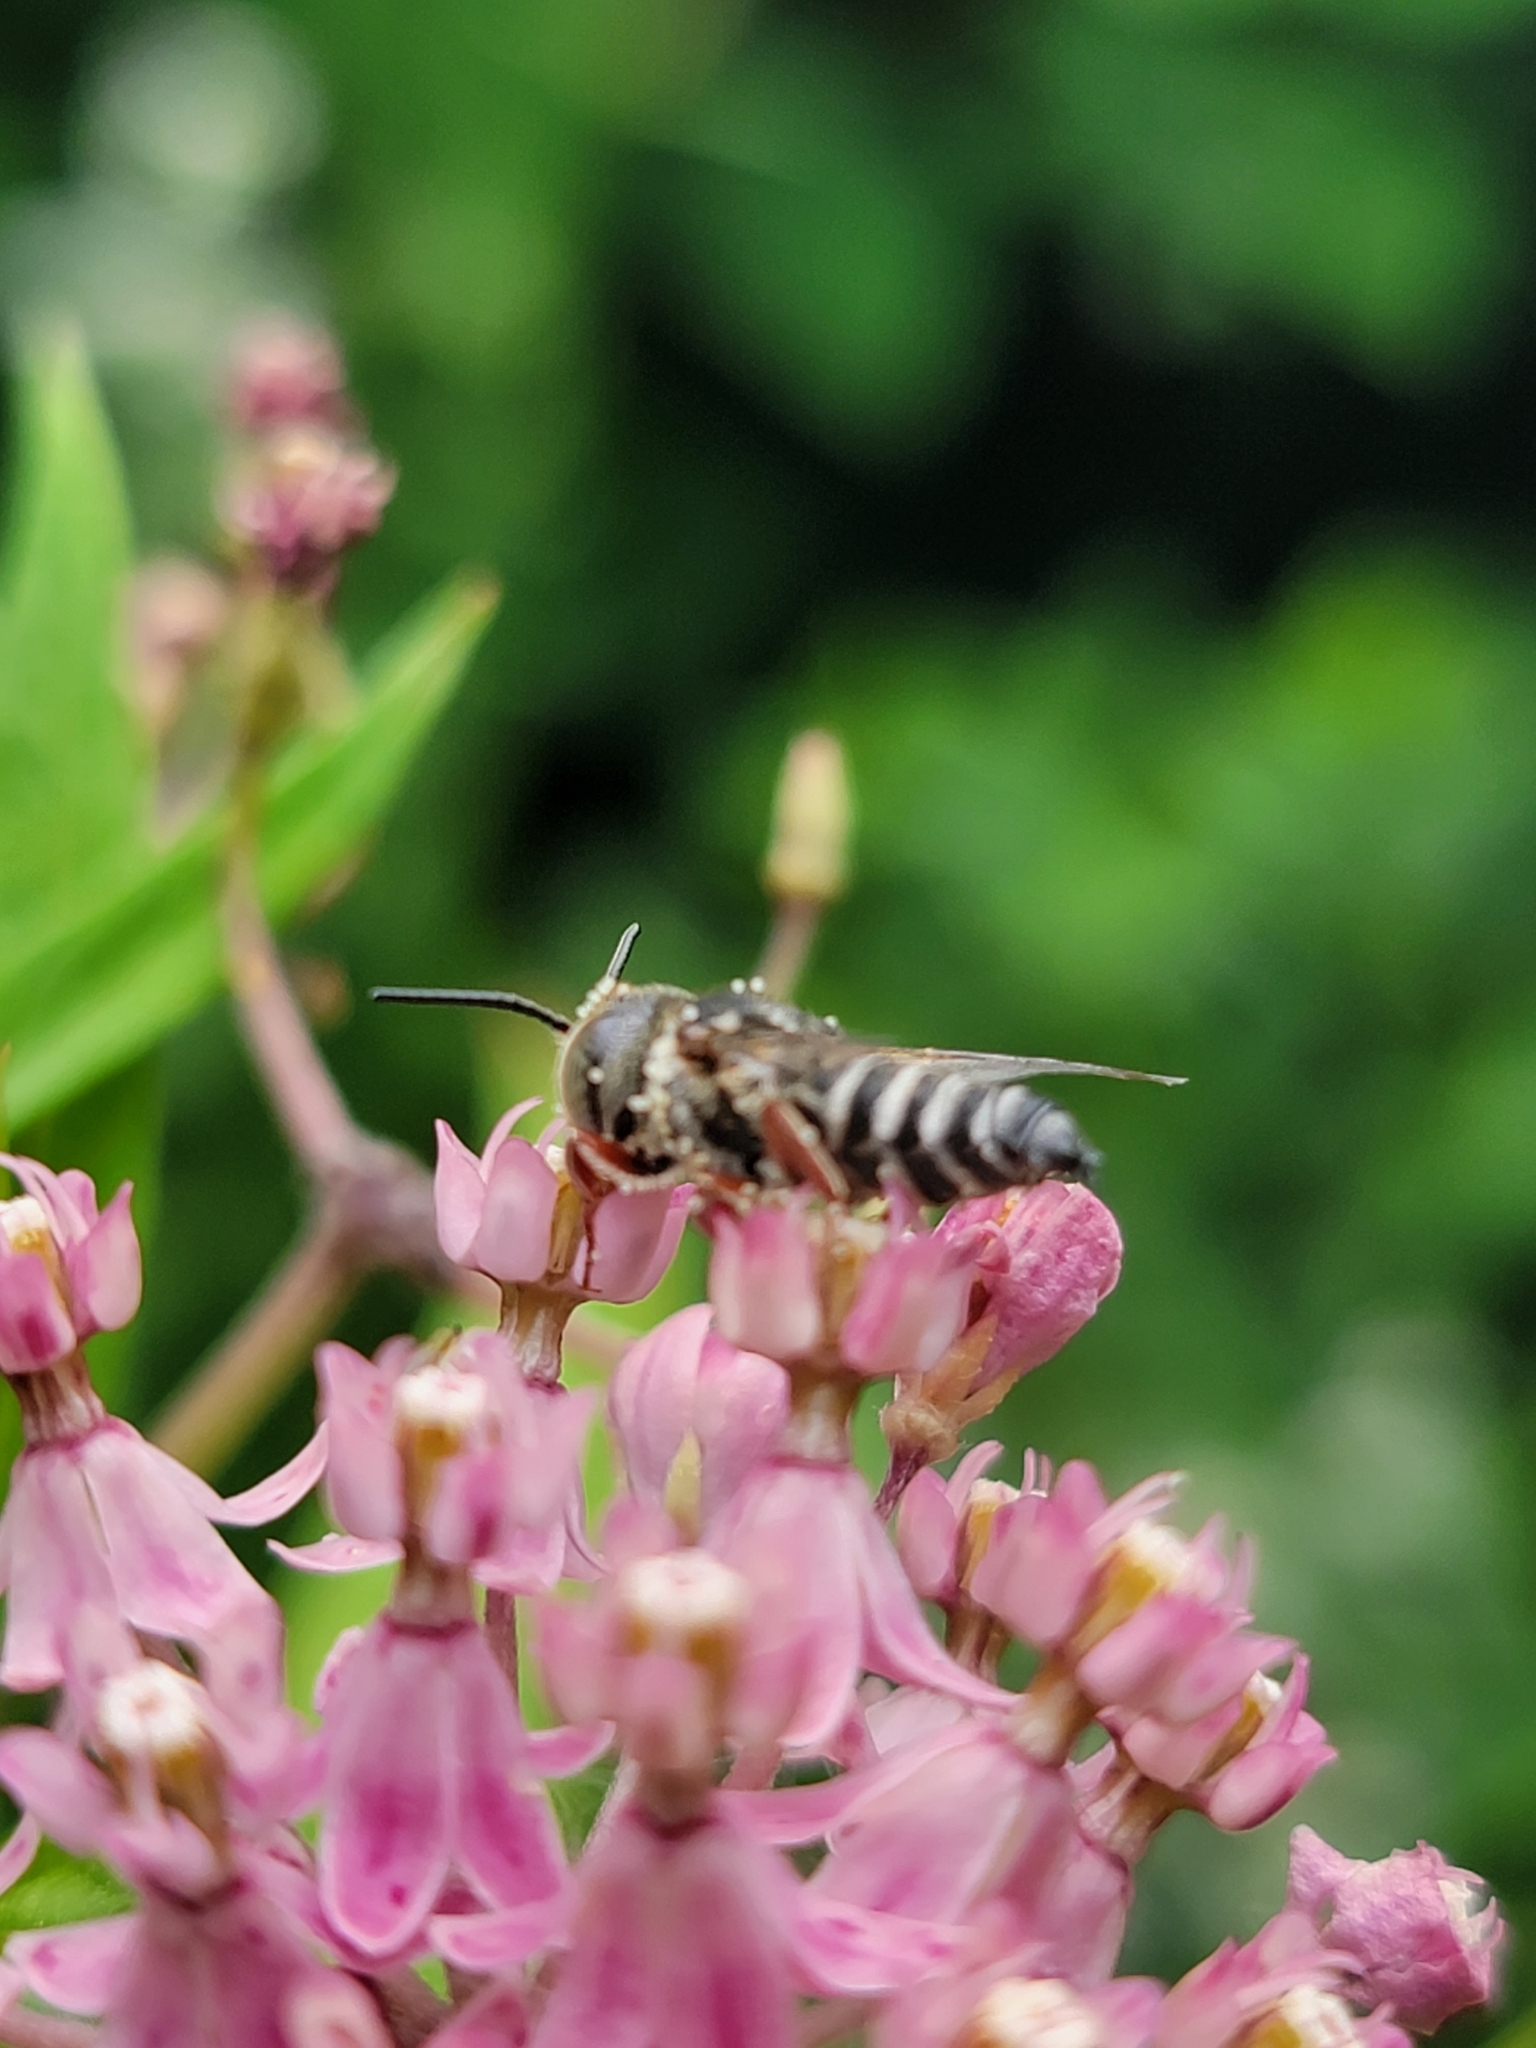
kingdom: Animalia
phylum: Arthropoda
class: Insecta
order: Hymenoptera
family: Megachilidae
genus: Coelioxys
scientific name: Coelioxys
